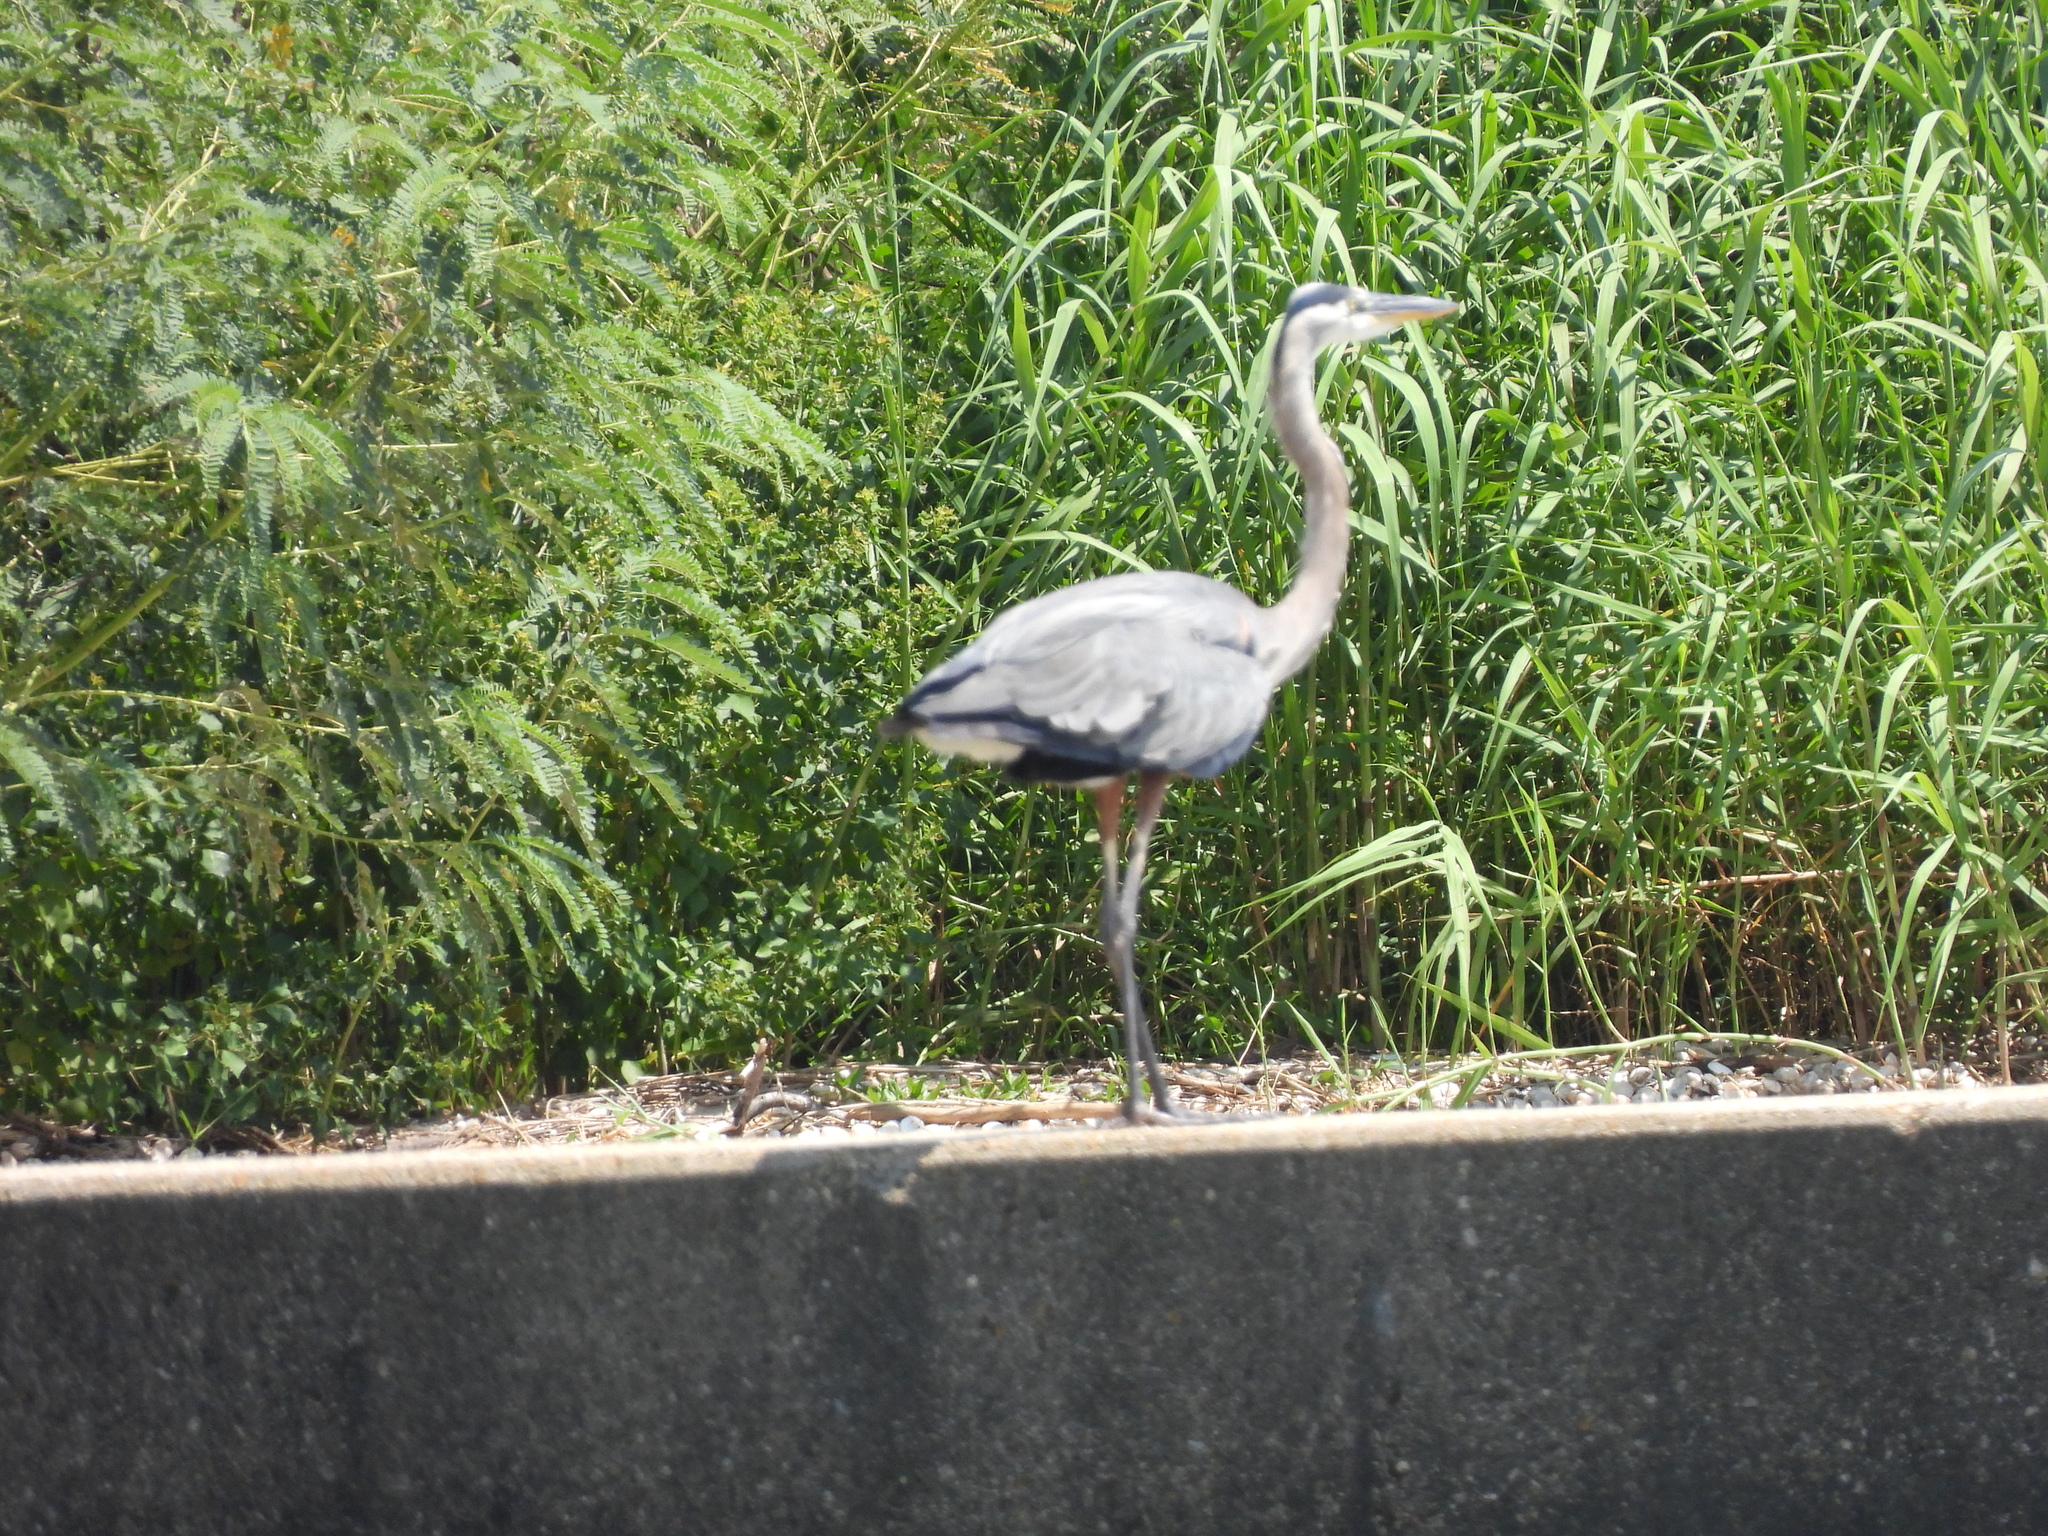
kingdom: Animalia
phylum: Chordata
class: Aves
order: Pelecaniformes
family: Ardeidae
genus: Ardea
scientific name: Ardea herodias
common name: Great blue heron
